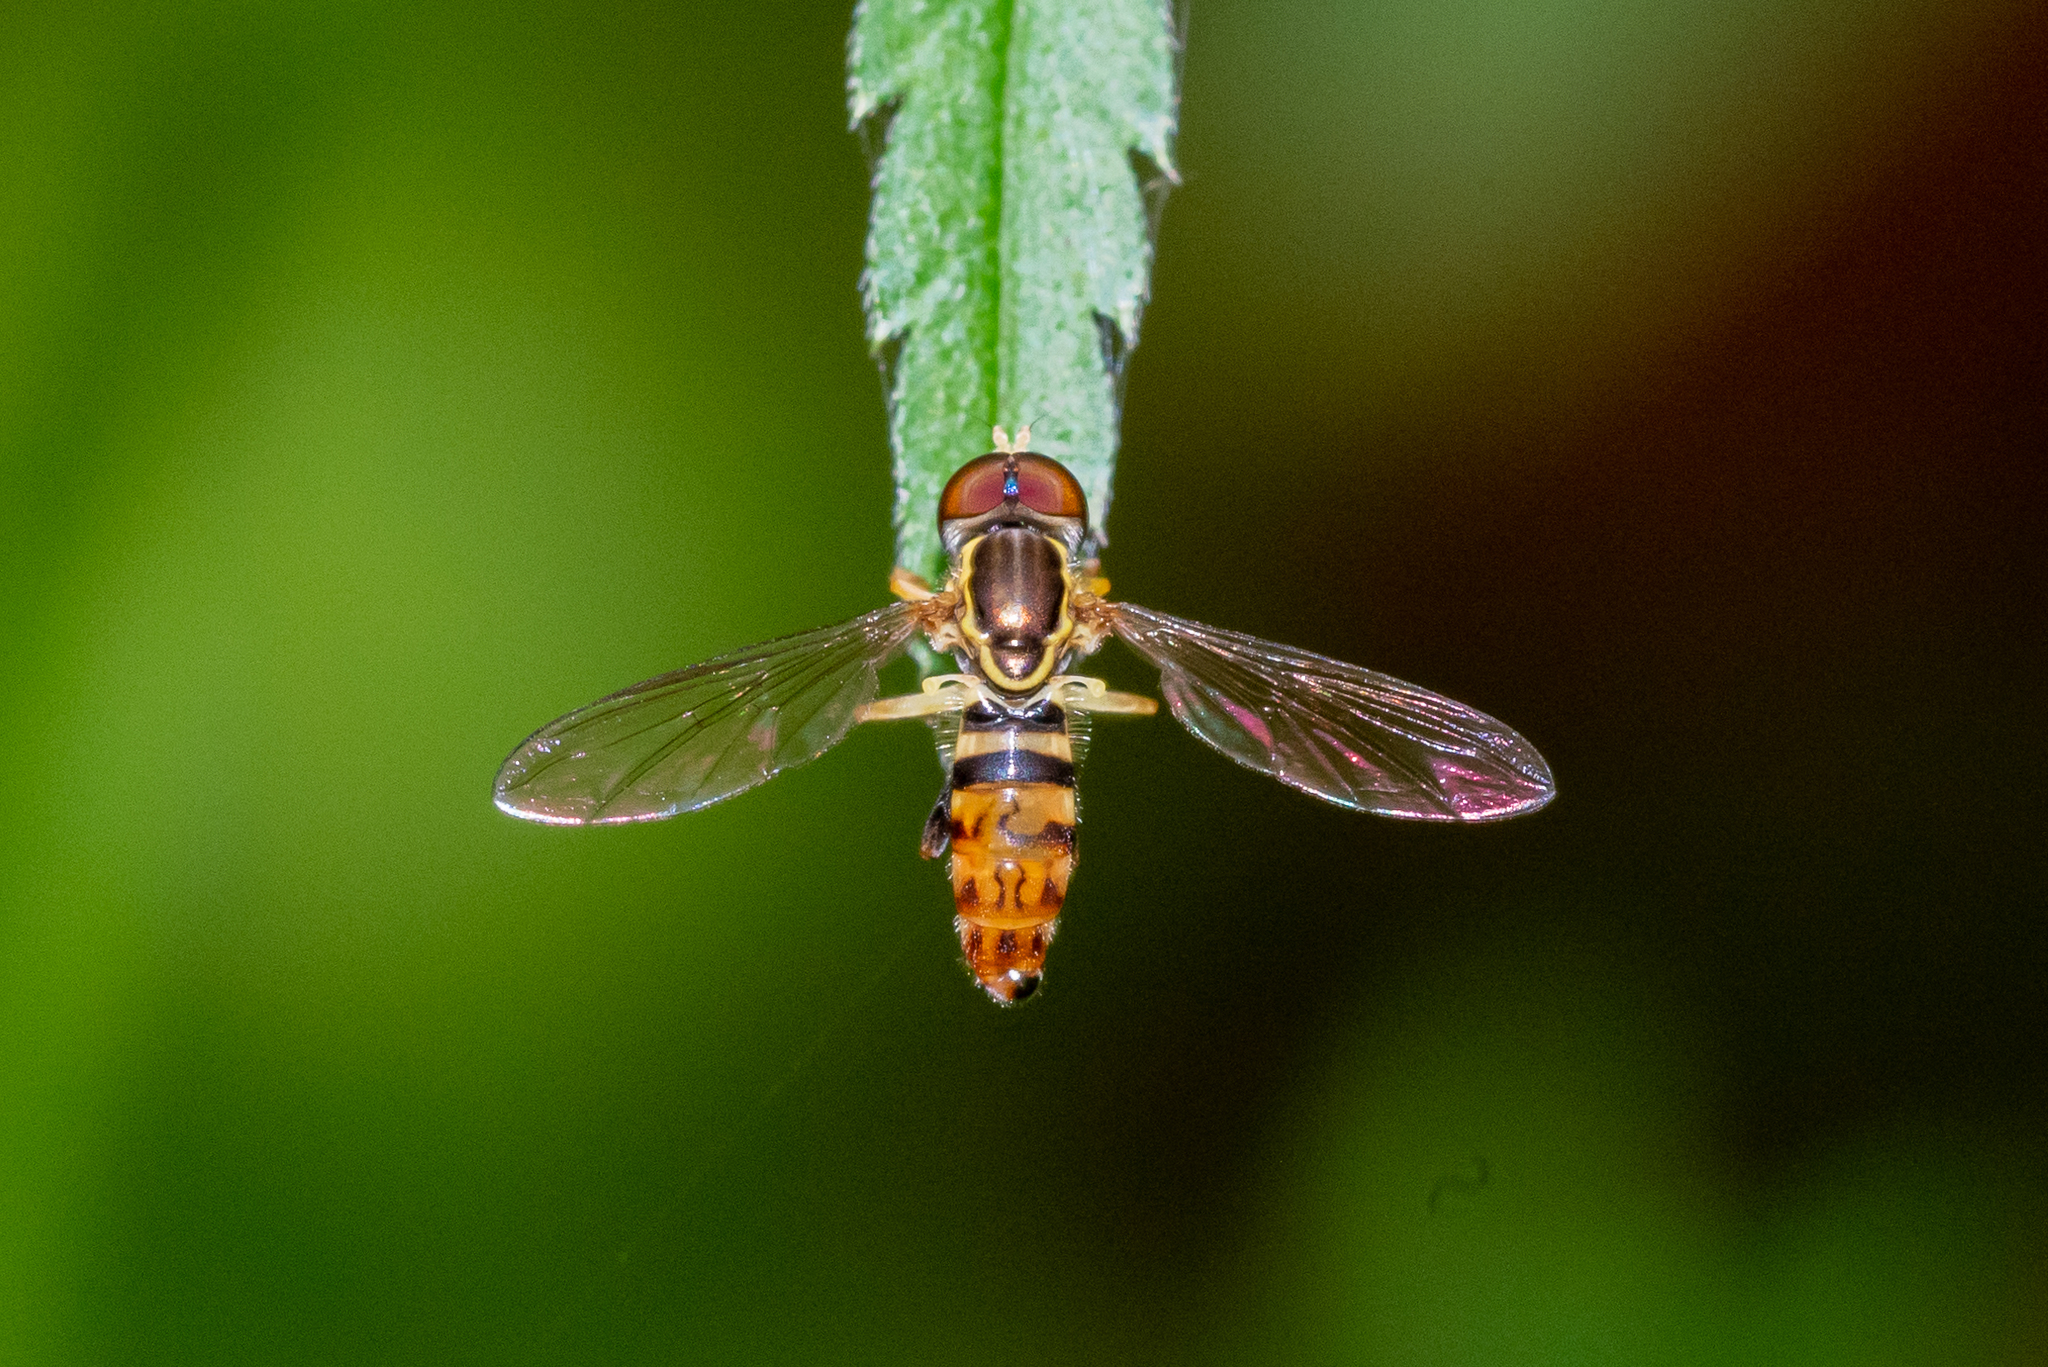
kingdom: Animalia
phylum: Arthropoda
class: Insecta
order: Diptera
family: Syrphidae
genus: Toxomerus
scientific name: Toxomerus geminatus
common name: Eastern calligrapher
